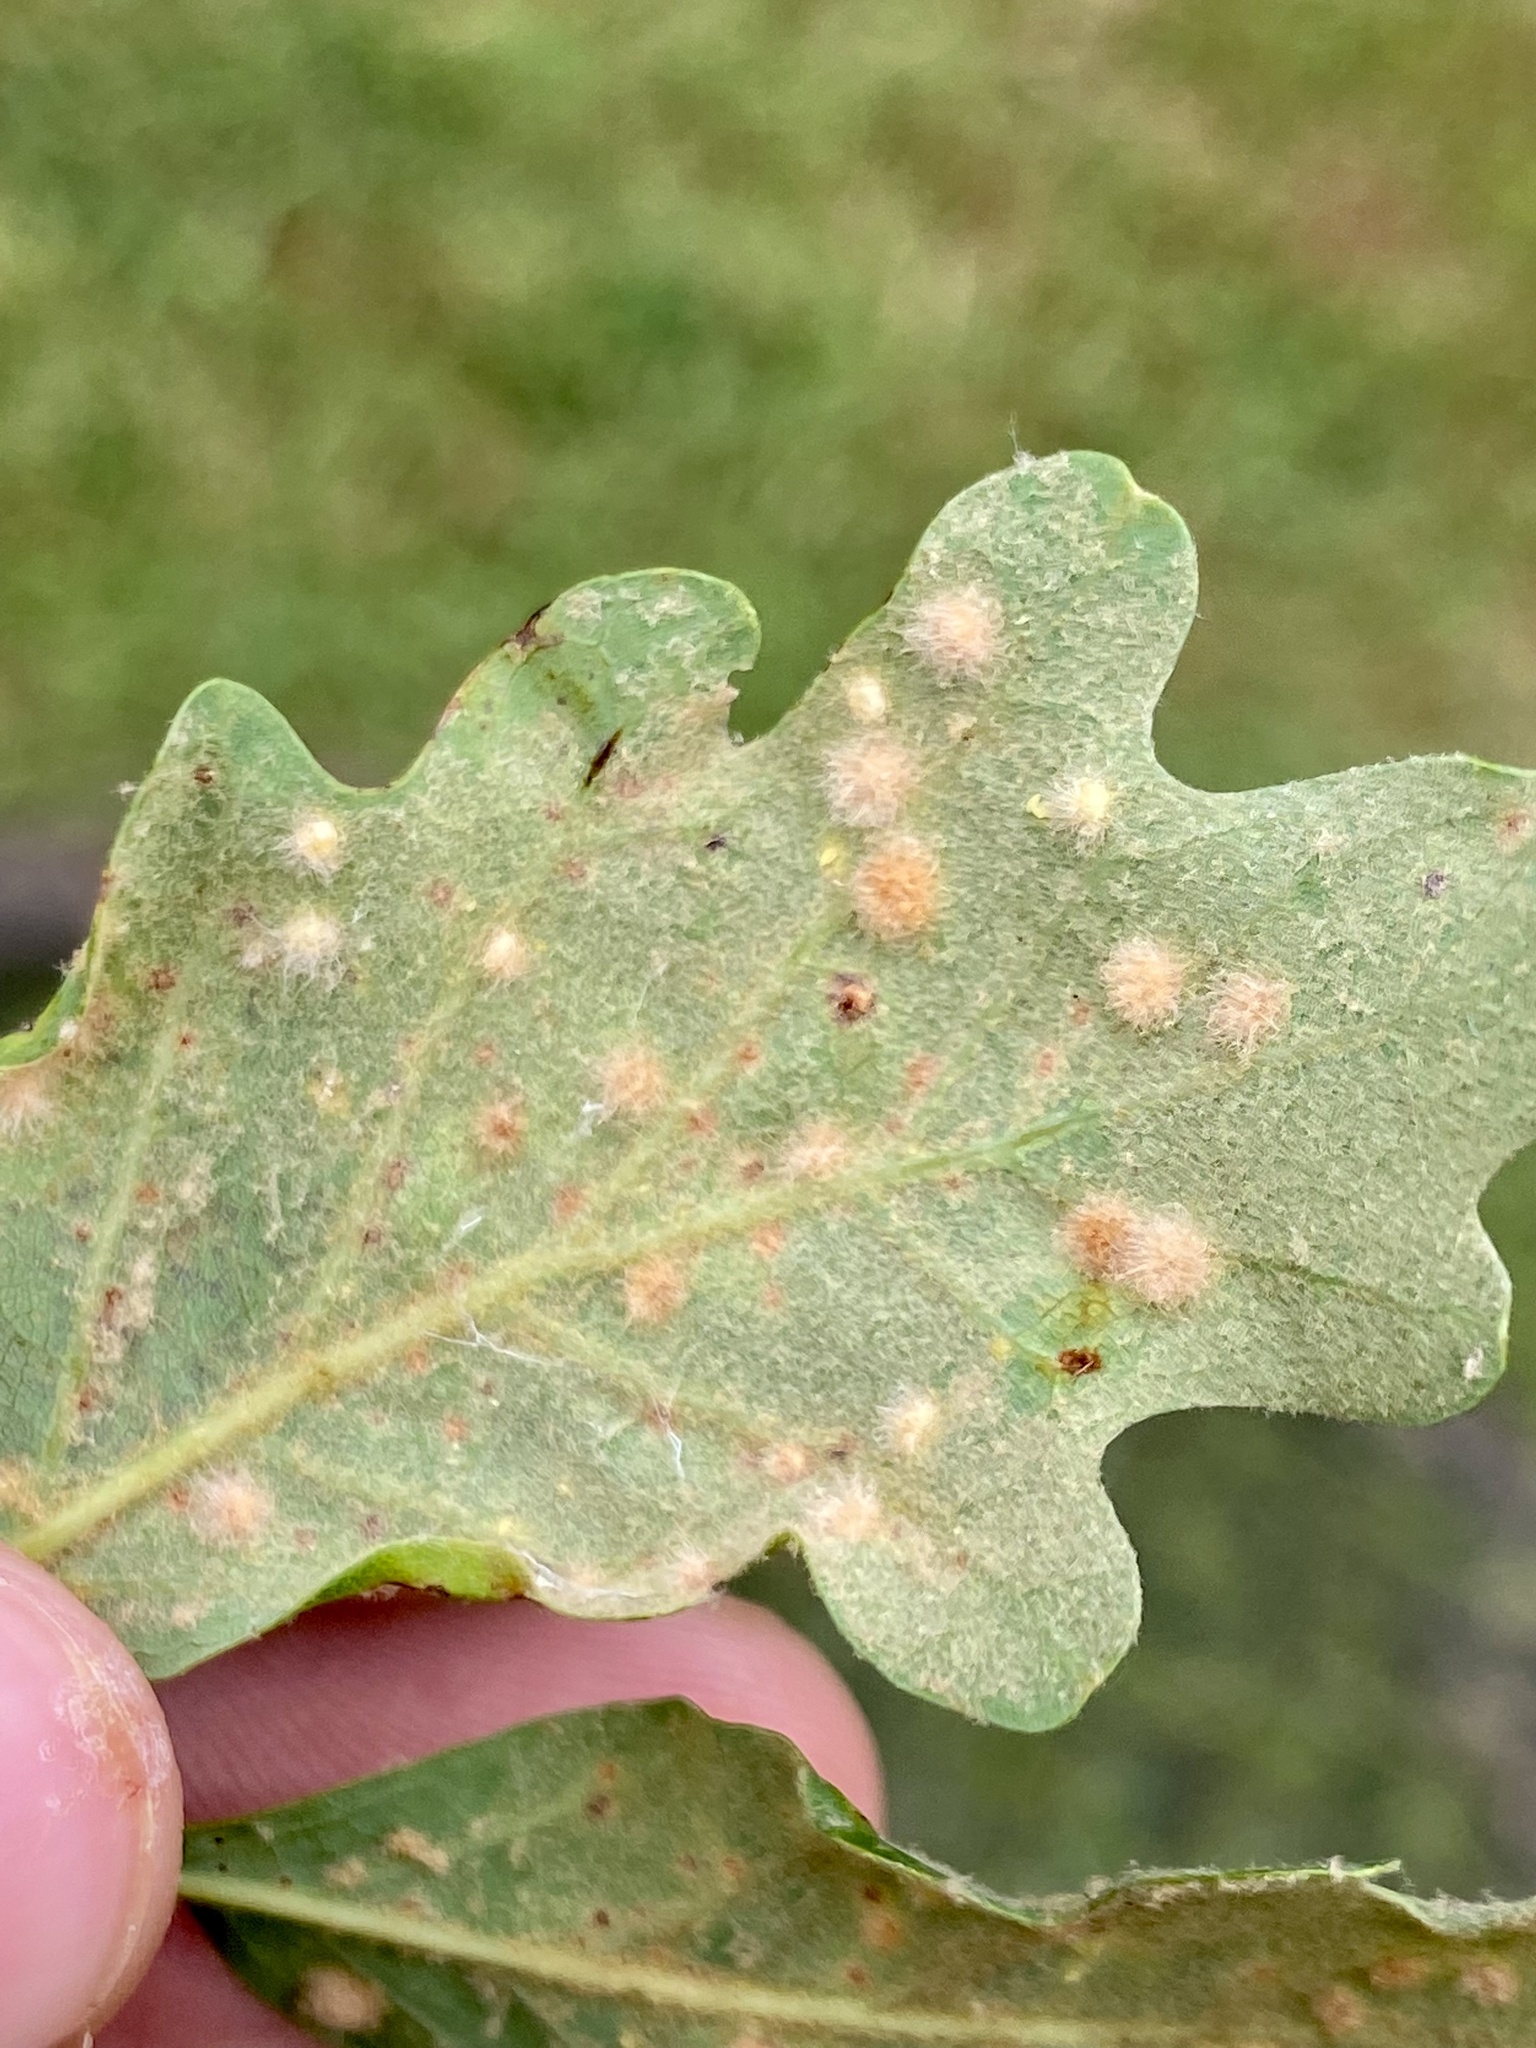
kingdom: Animalia
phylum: Arthropoda
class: Insecta
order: Hymenoptera
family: Cynipidae
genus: Neuroterus
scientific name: Neuroterus quercusverrucarum
